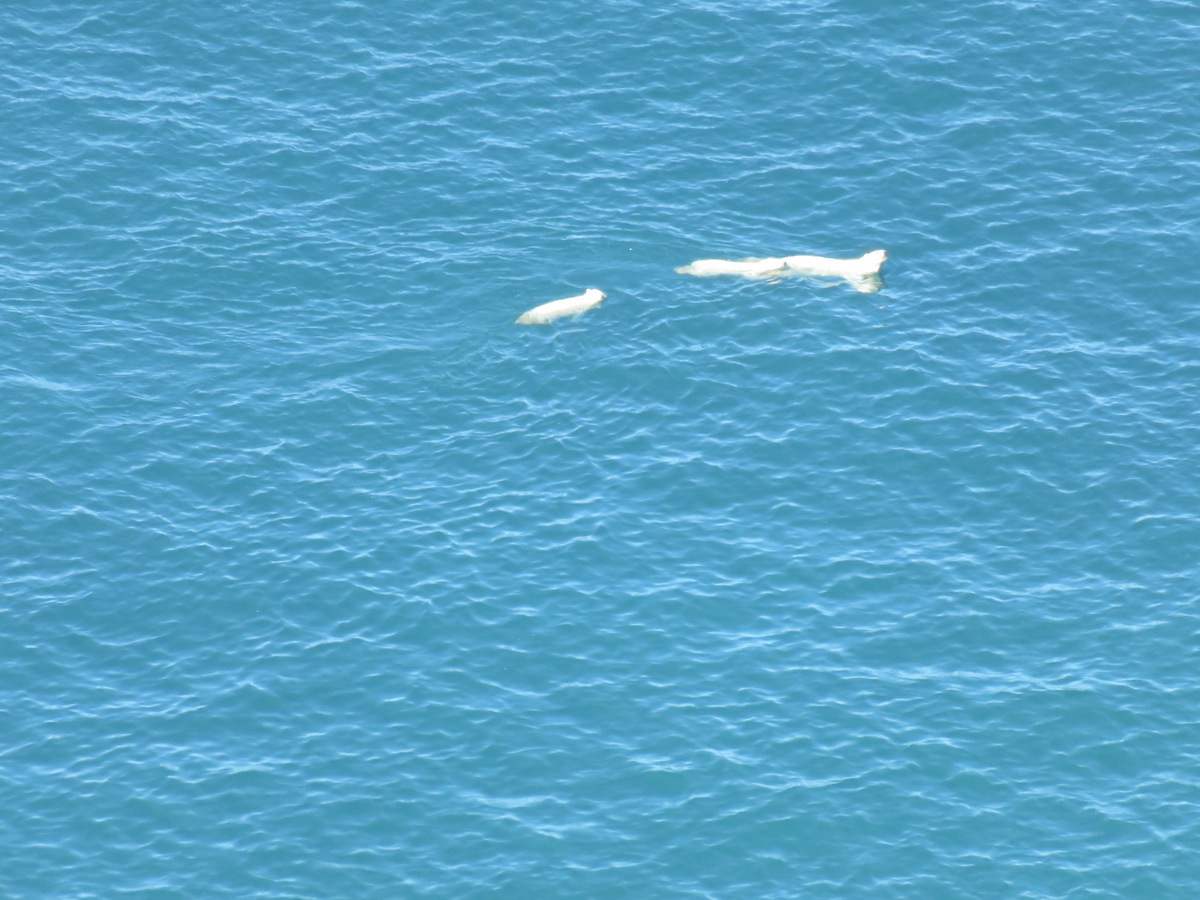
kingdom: Animalia
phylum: Chordata
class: Mammalia
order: Carnivora
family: Ursidae
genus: Ursus
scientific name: Ursus maritimus
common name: Polar bear
